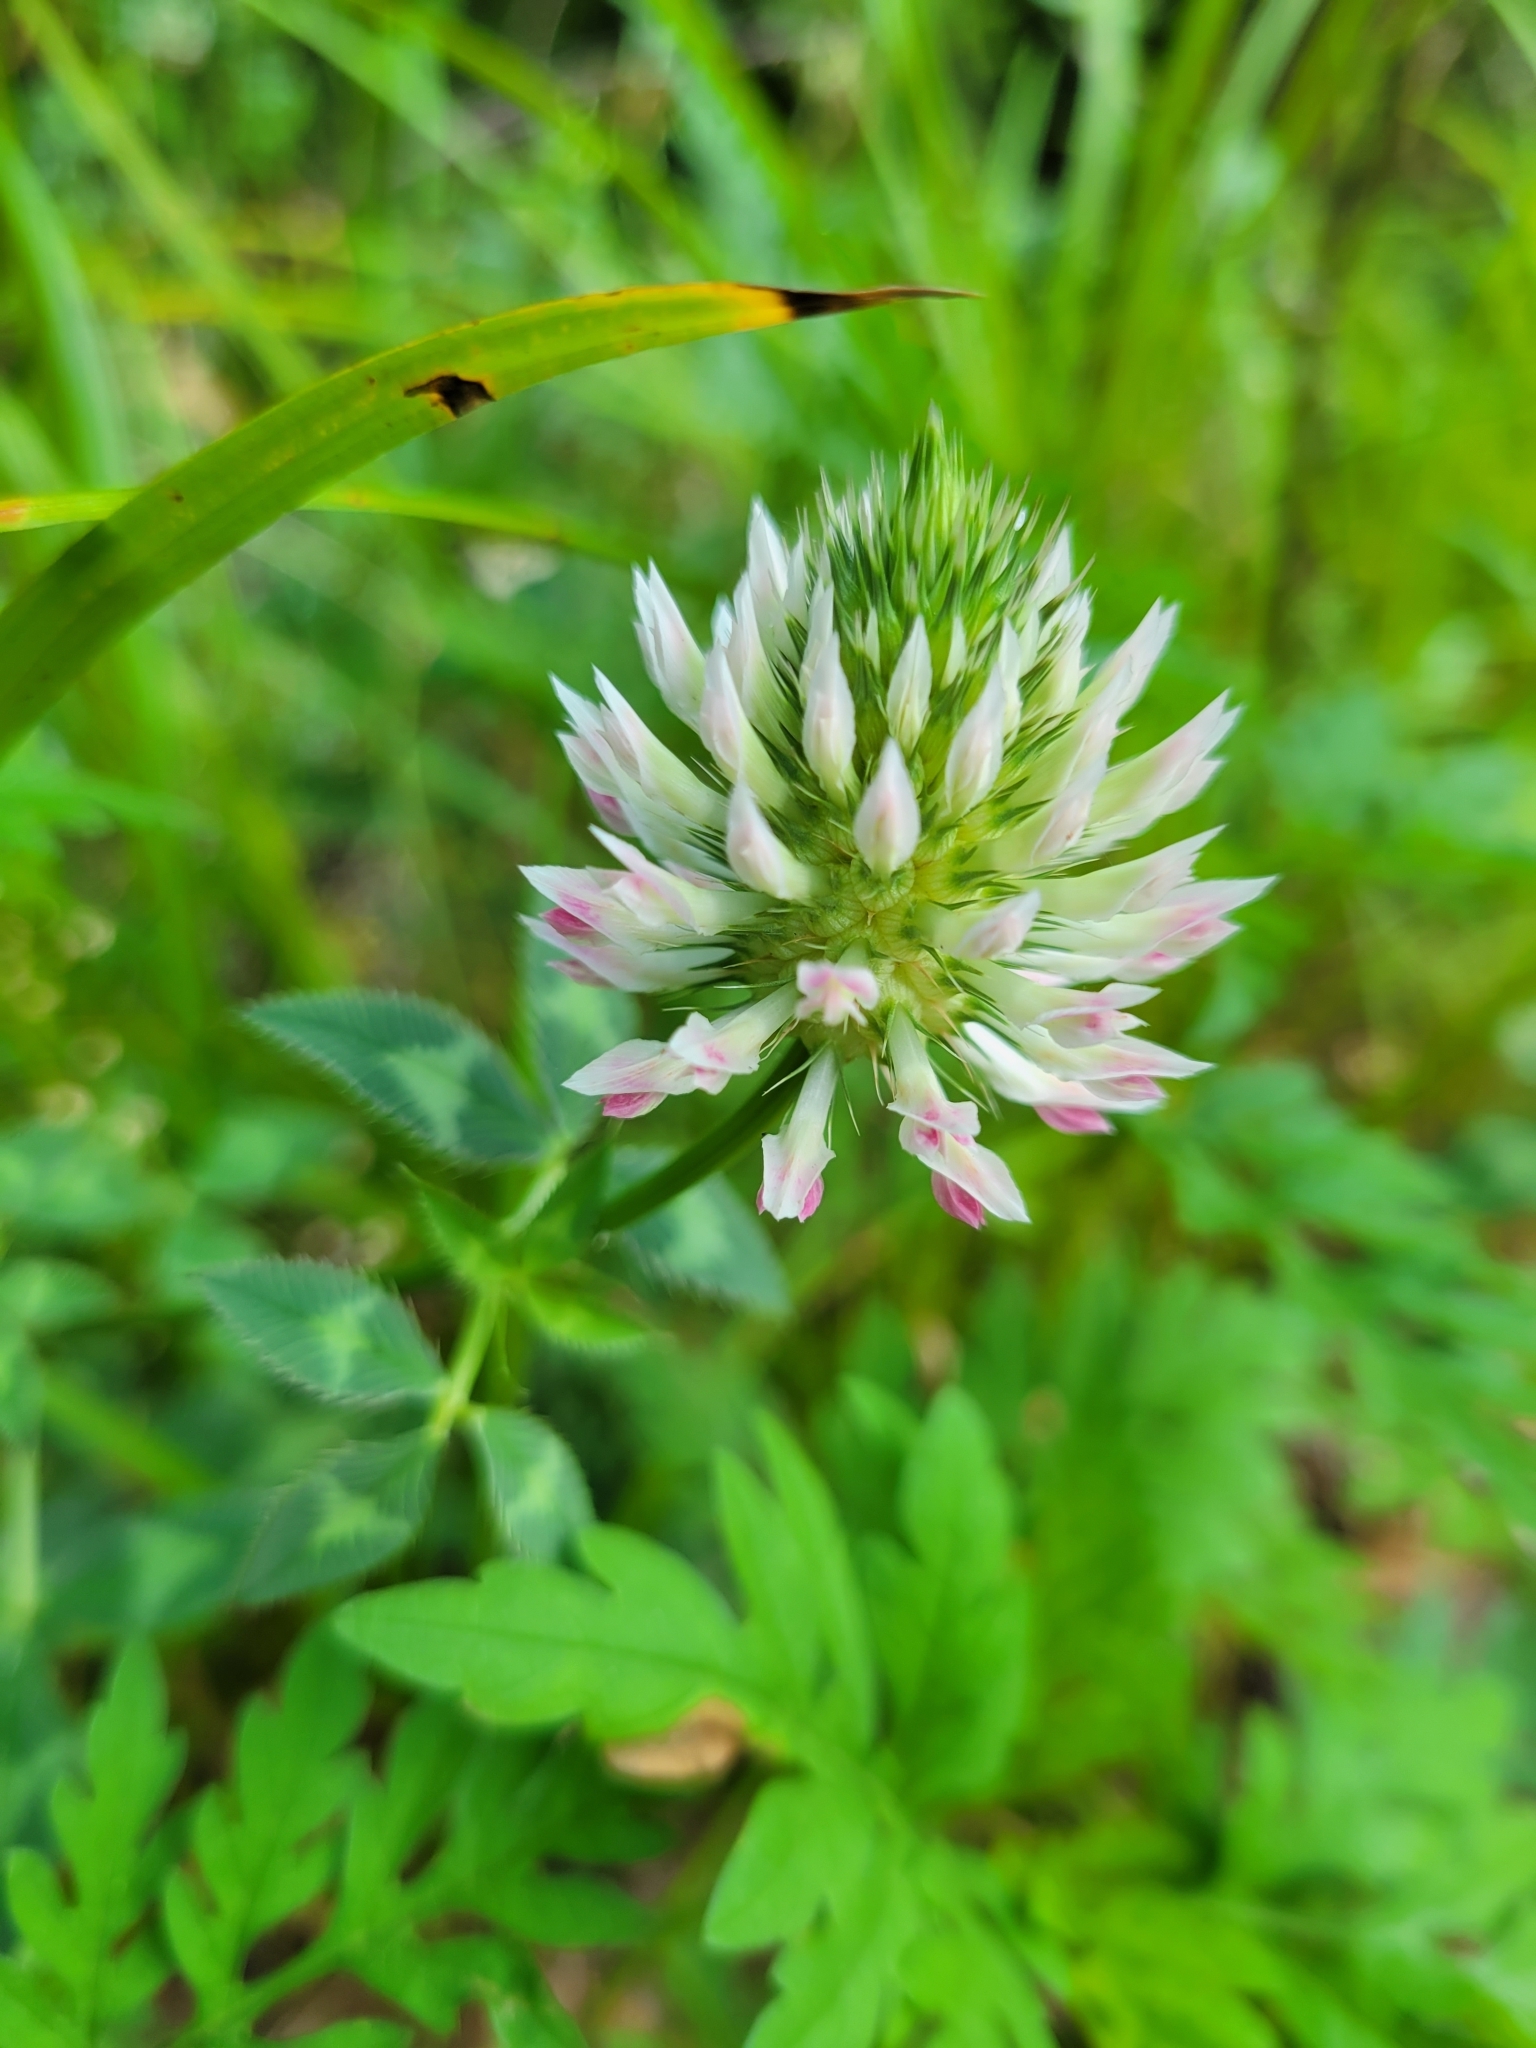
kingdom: Plantae
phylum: Tracheophyta
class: Magnoliopsida
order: Fabales
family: Fabaceae
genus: Trifolium
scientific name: Trifolium vesiculosum
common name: Arrowleaf clover
